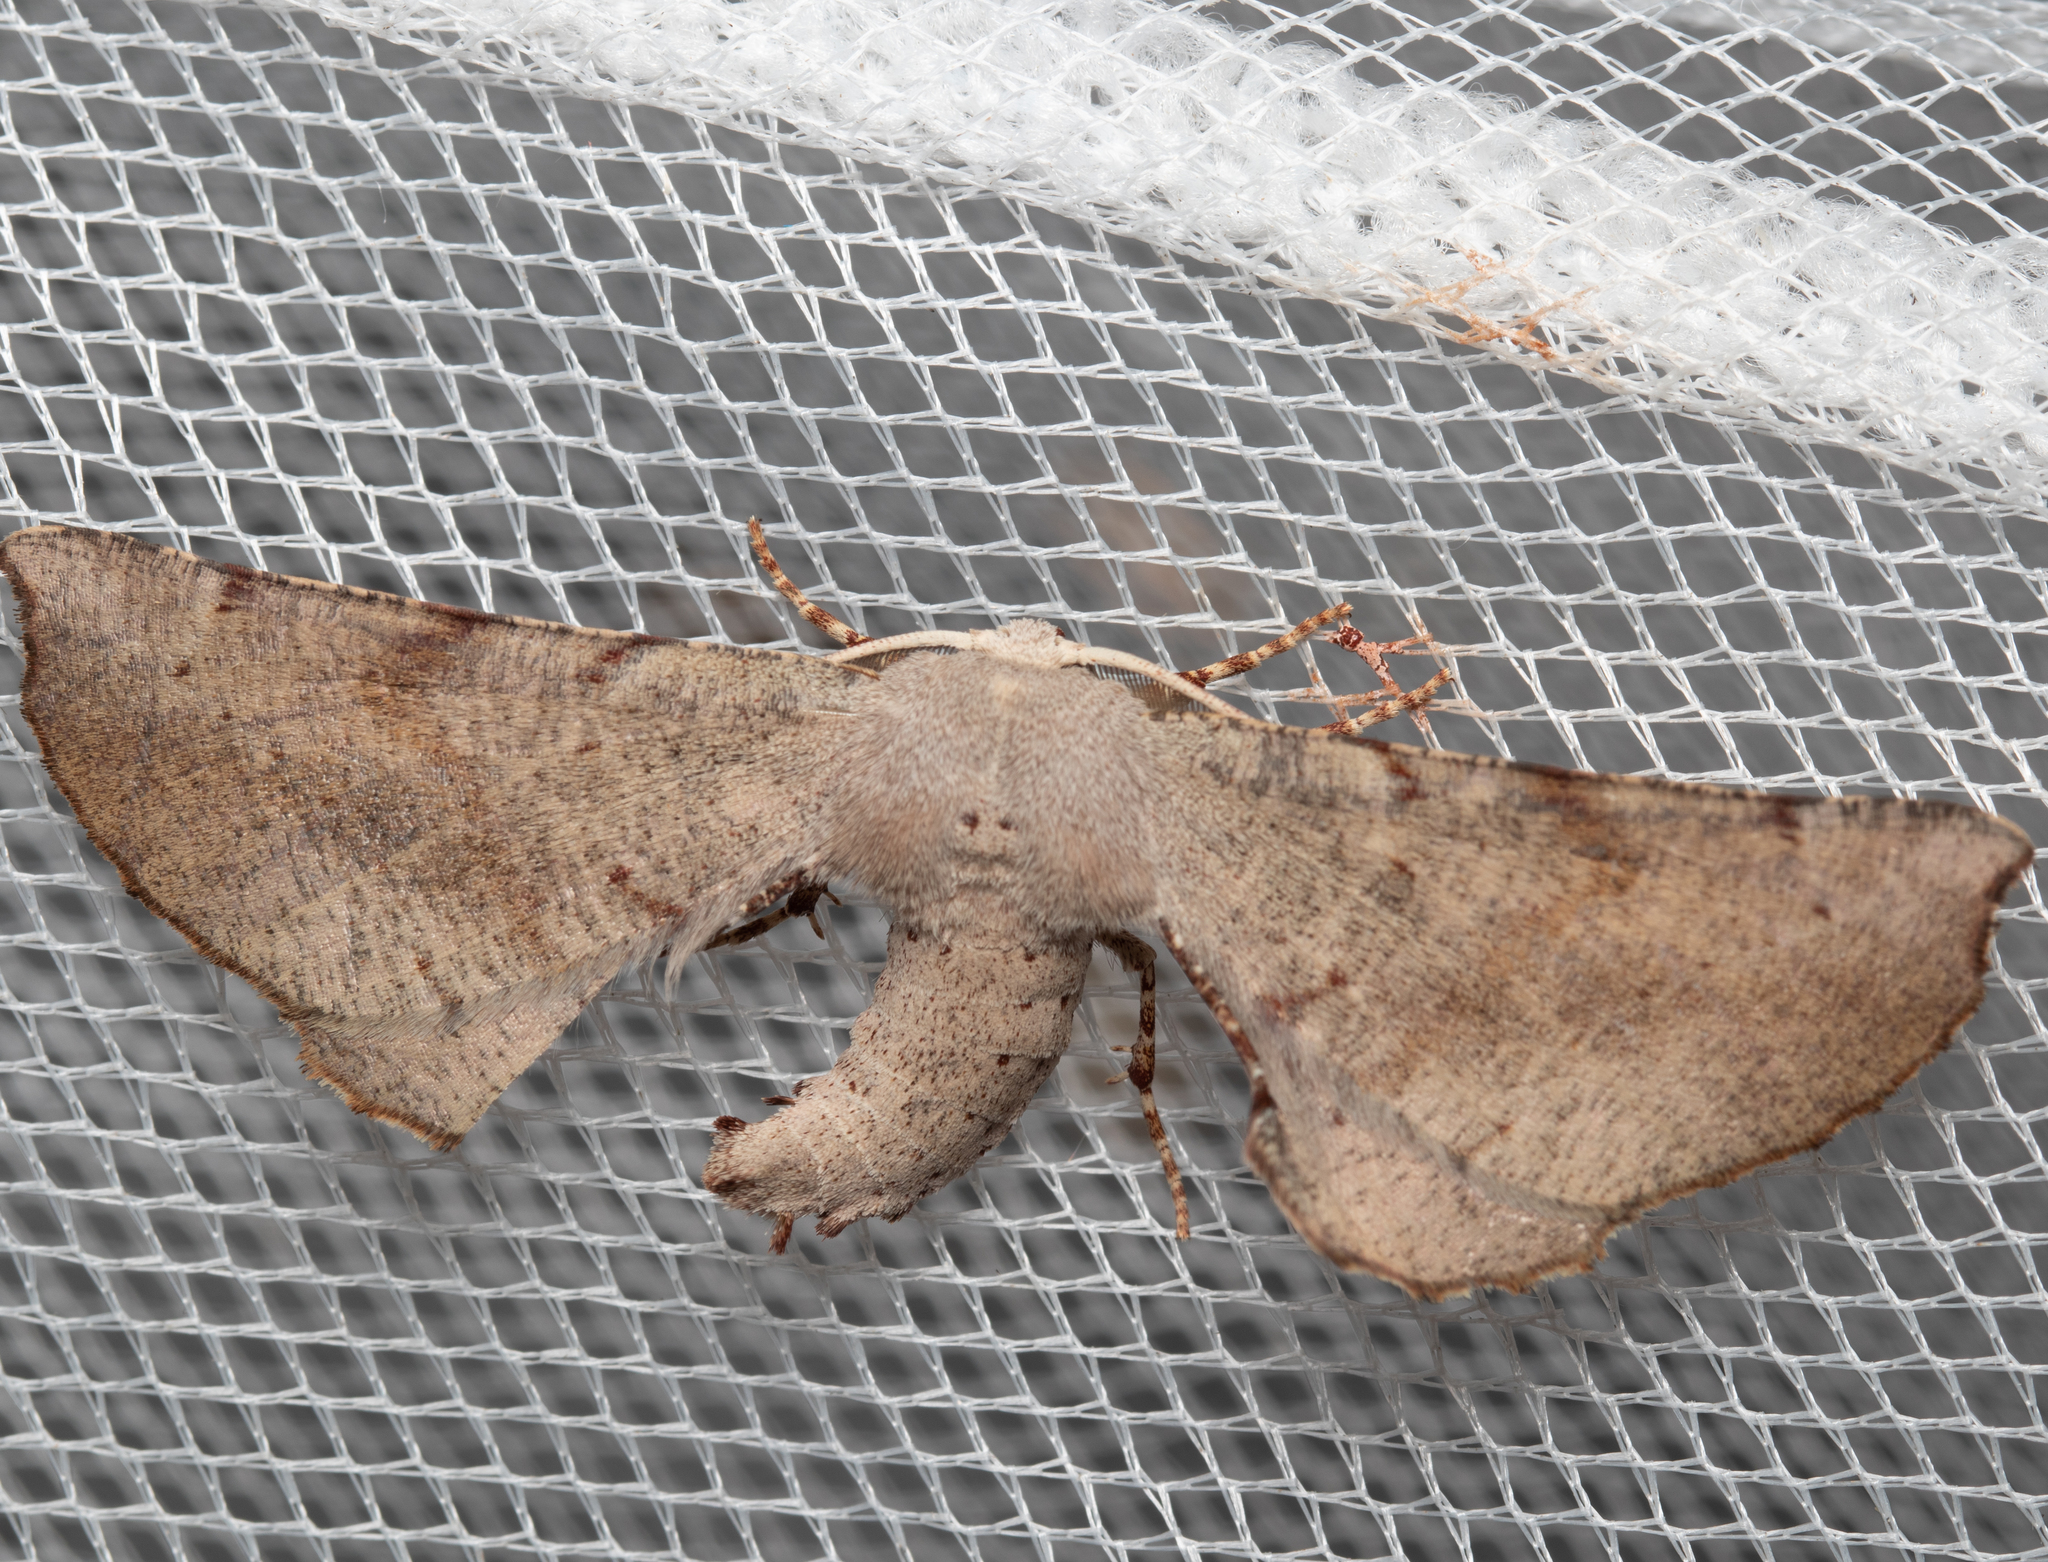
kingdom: Animalia
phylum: Arthropoda
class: Insecta
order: Lepidoptera
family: Geometridae
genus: Circopetes
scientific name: Circopetes obtusata
